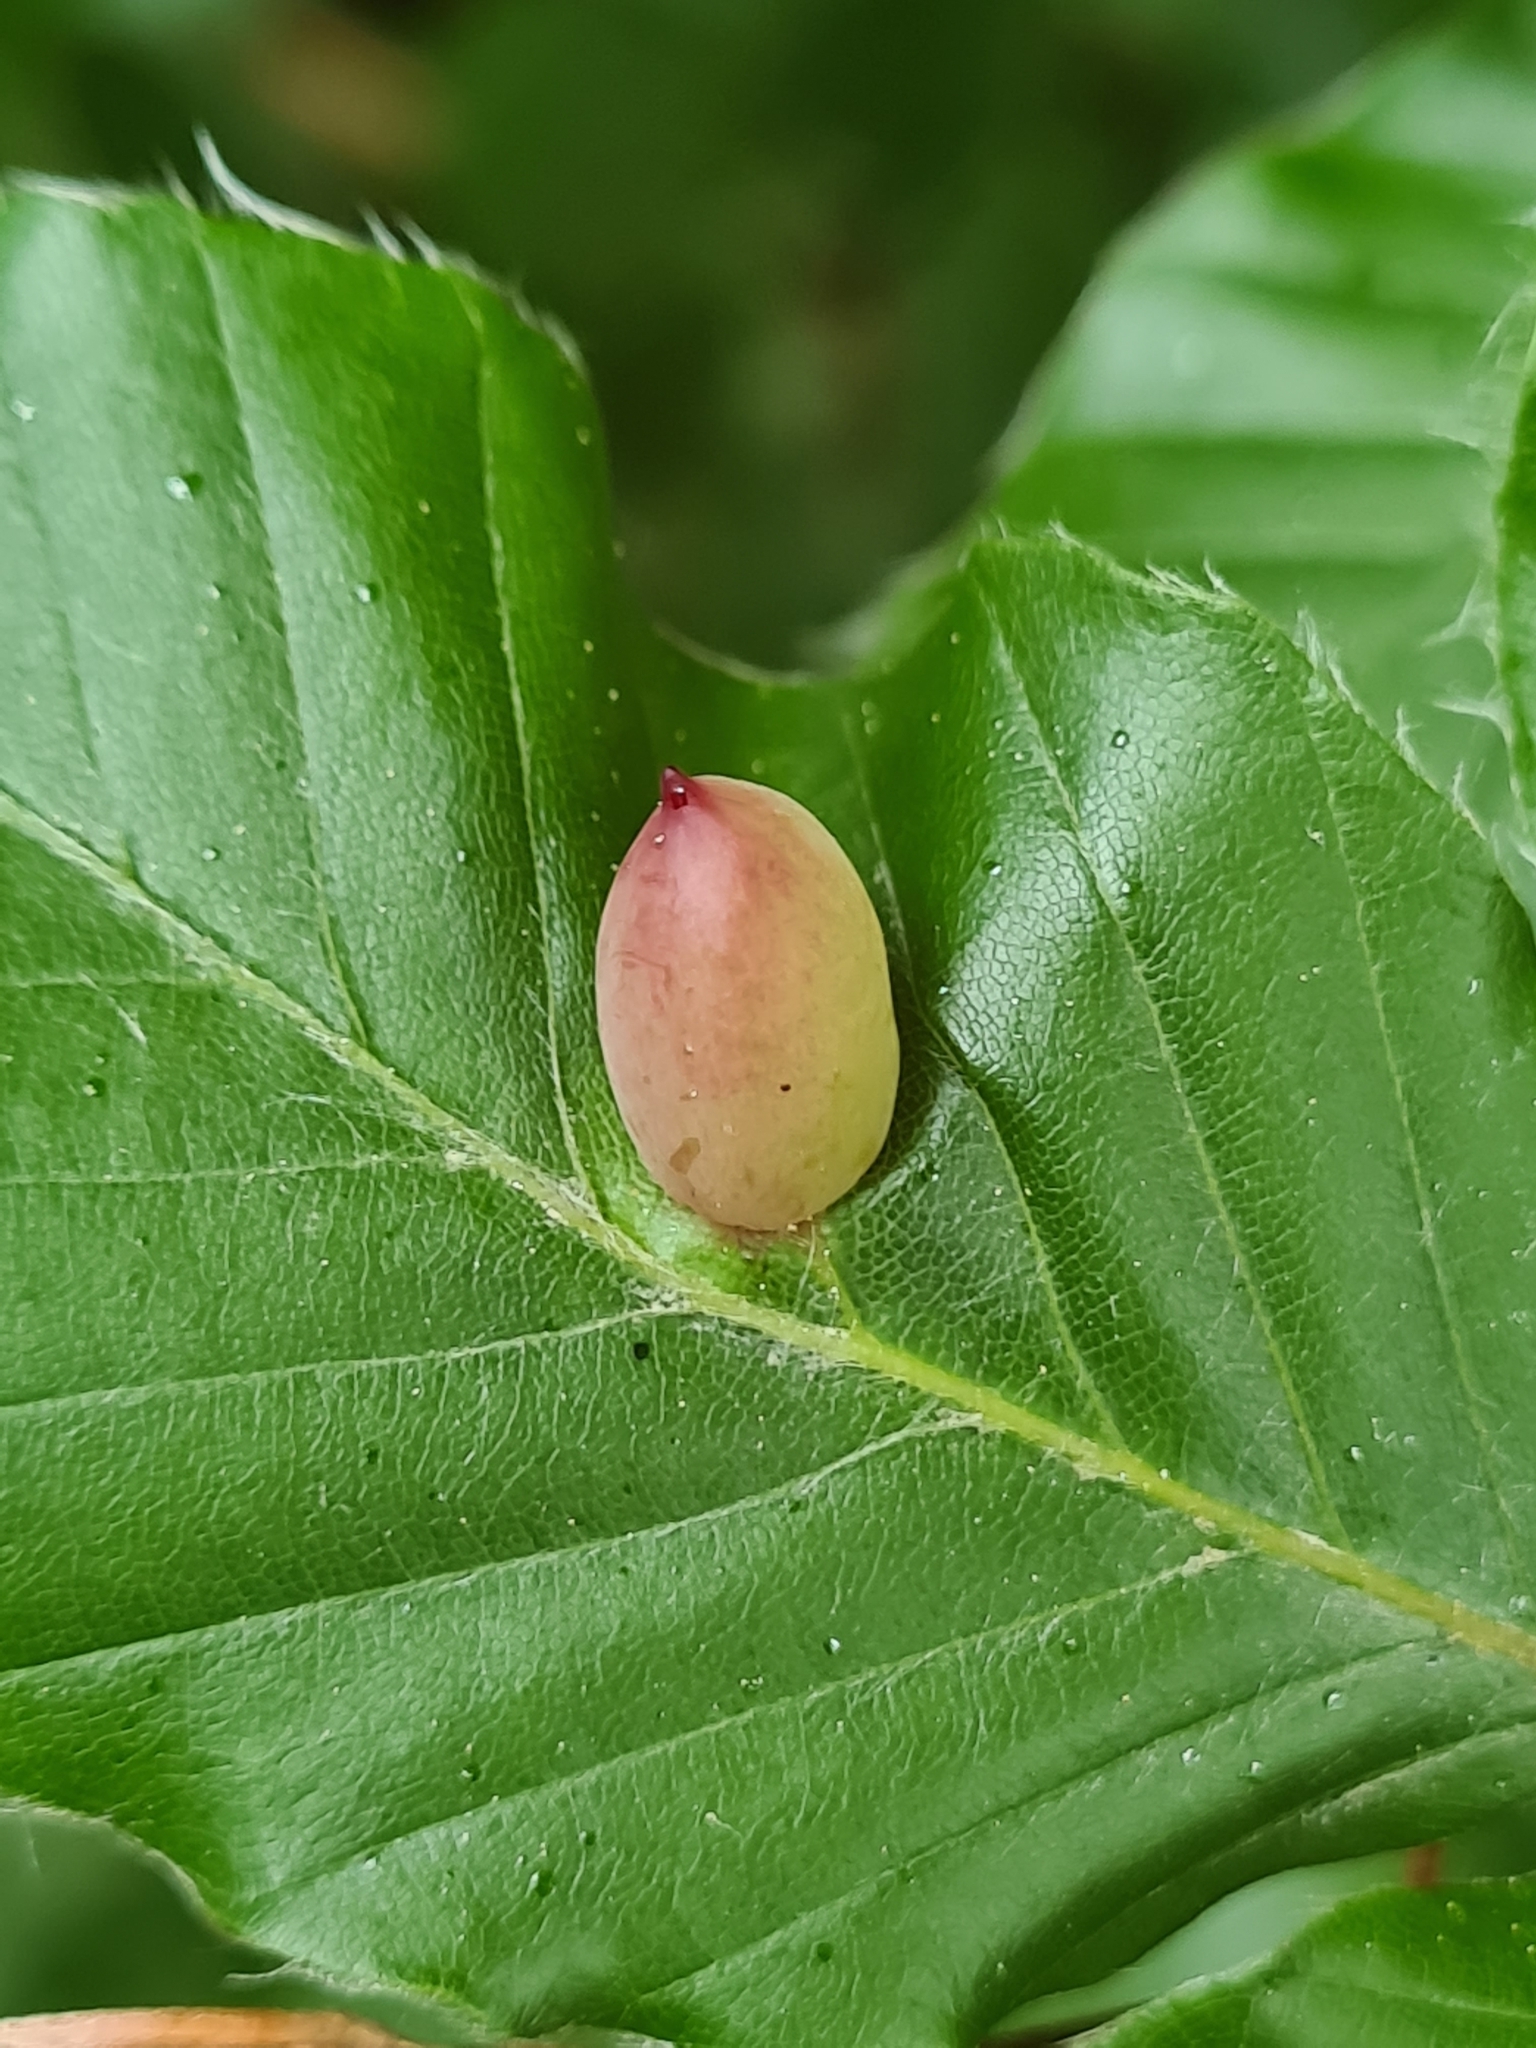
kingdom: Animalia
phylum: Arthropoda
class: Insecta
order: Diptera
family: Cecidomyiidae
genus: Mikiola
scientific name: Mikiola fagi
